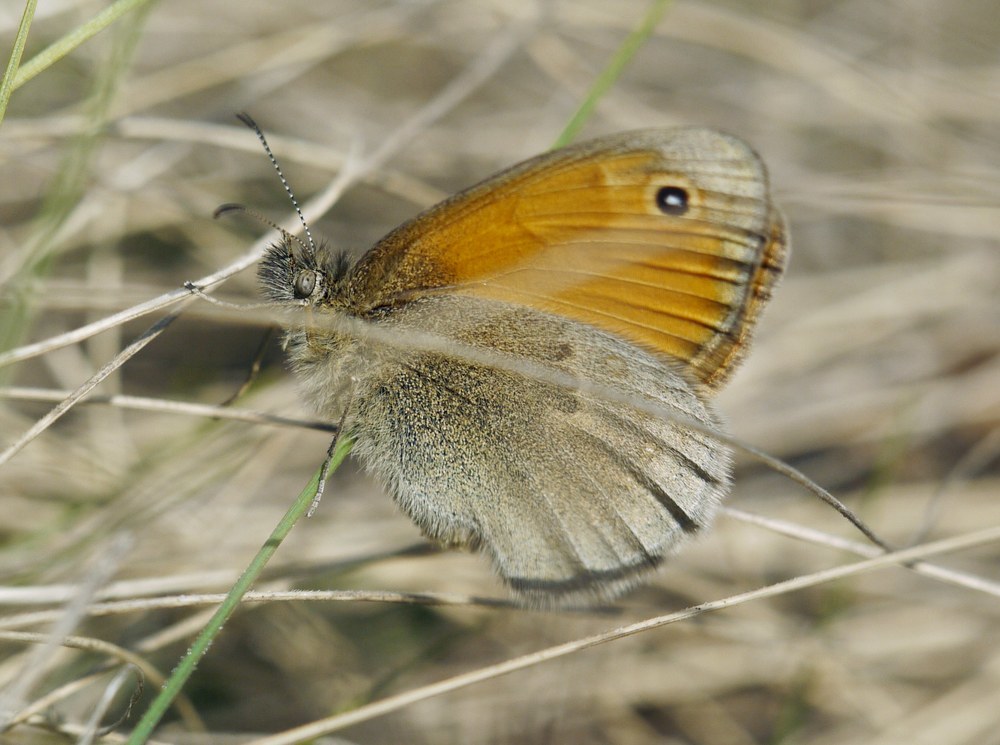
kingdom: Animalia
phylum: Arthropoda
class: Insecta
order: Lepidoptera
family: Nymphalidae
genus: Coenonympha
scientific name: Coenonympha pamphilus
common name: Small heath
